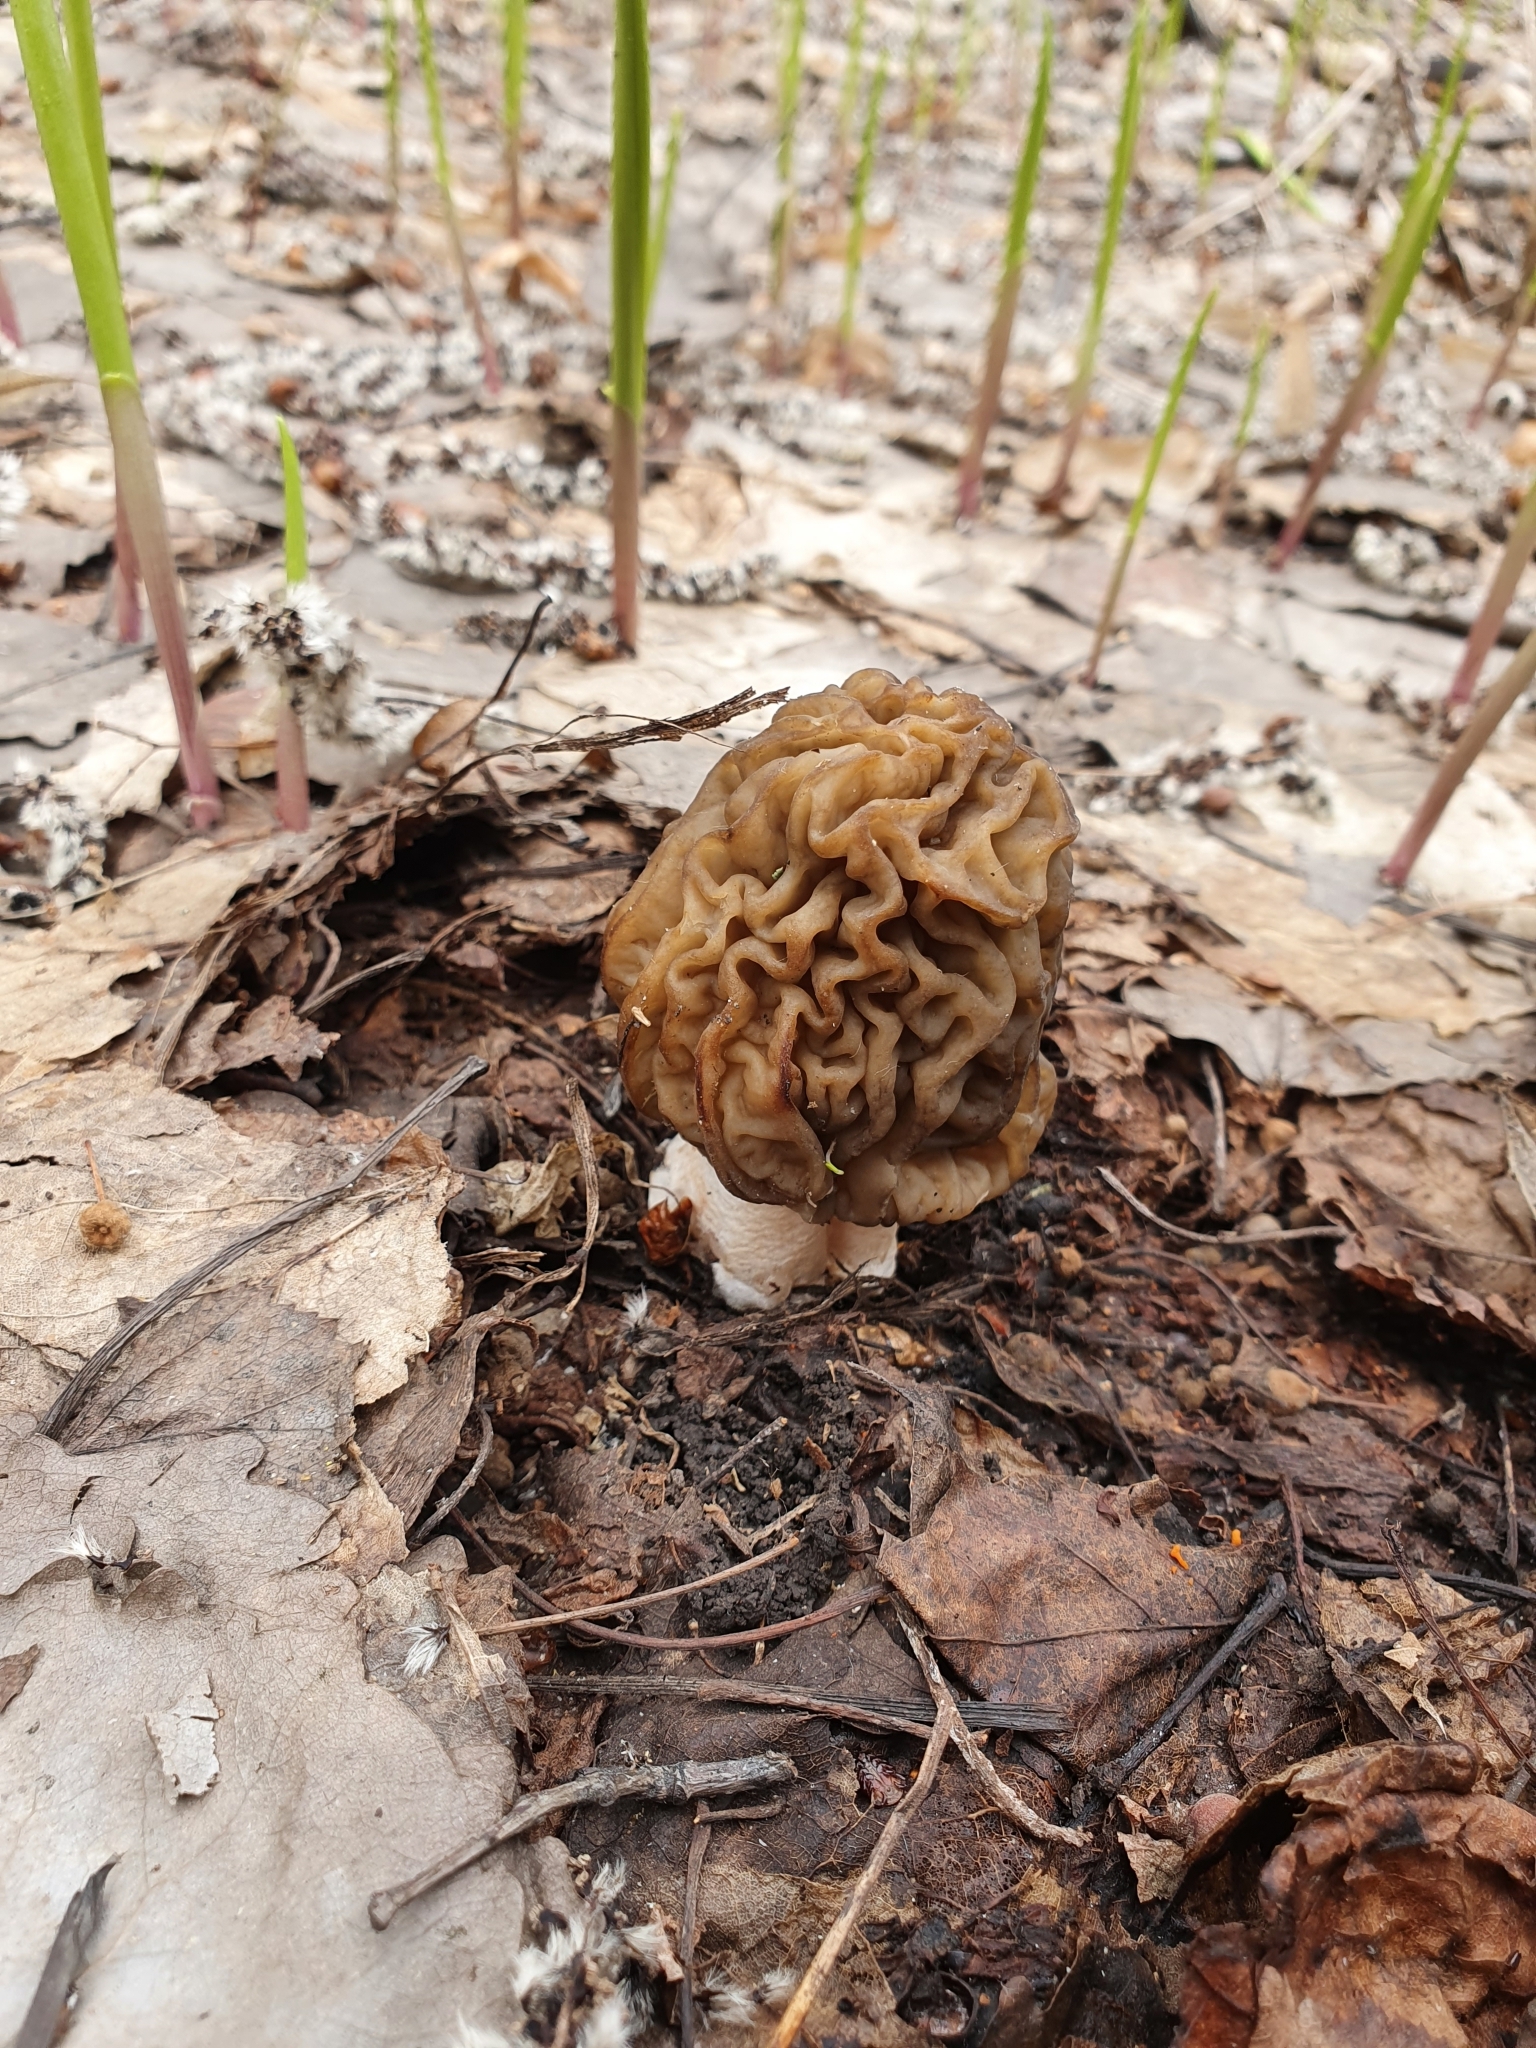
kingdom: Fungi
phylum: Ascomycota
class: Pezizomycetes
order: Pezizales
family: Morchellaceae
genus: Verpa
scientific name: Verpa bohemica
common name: Wrinkled thimble morel
